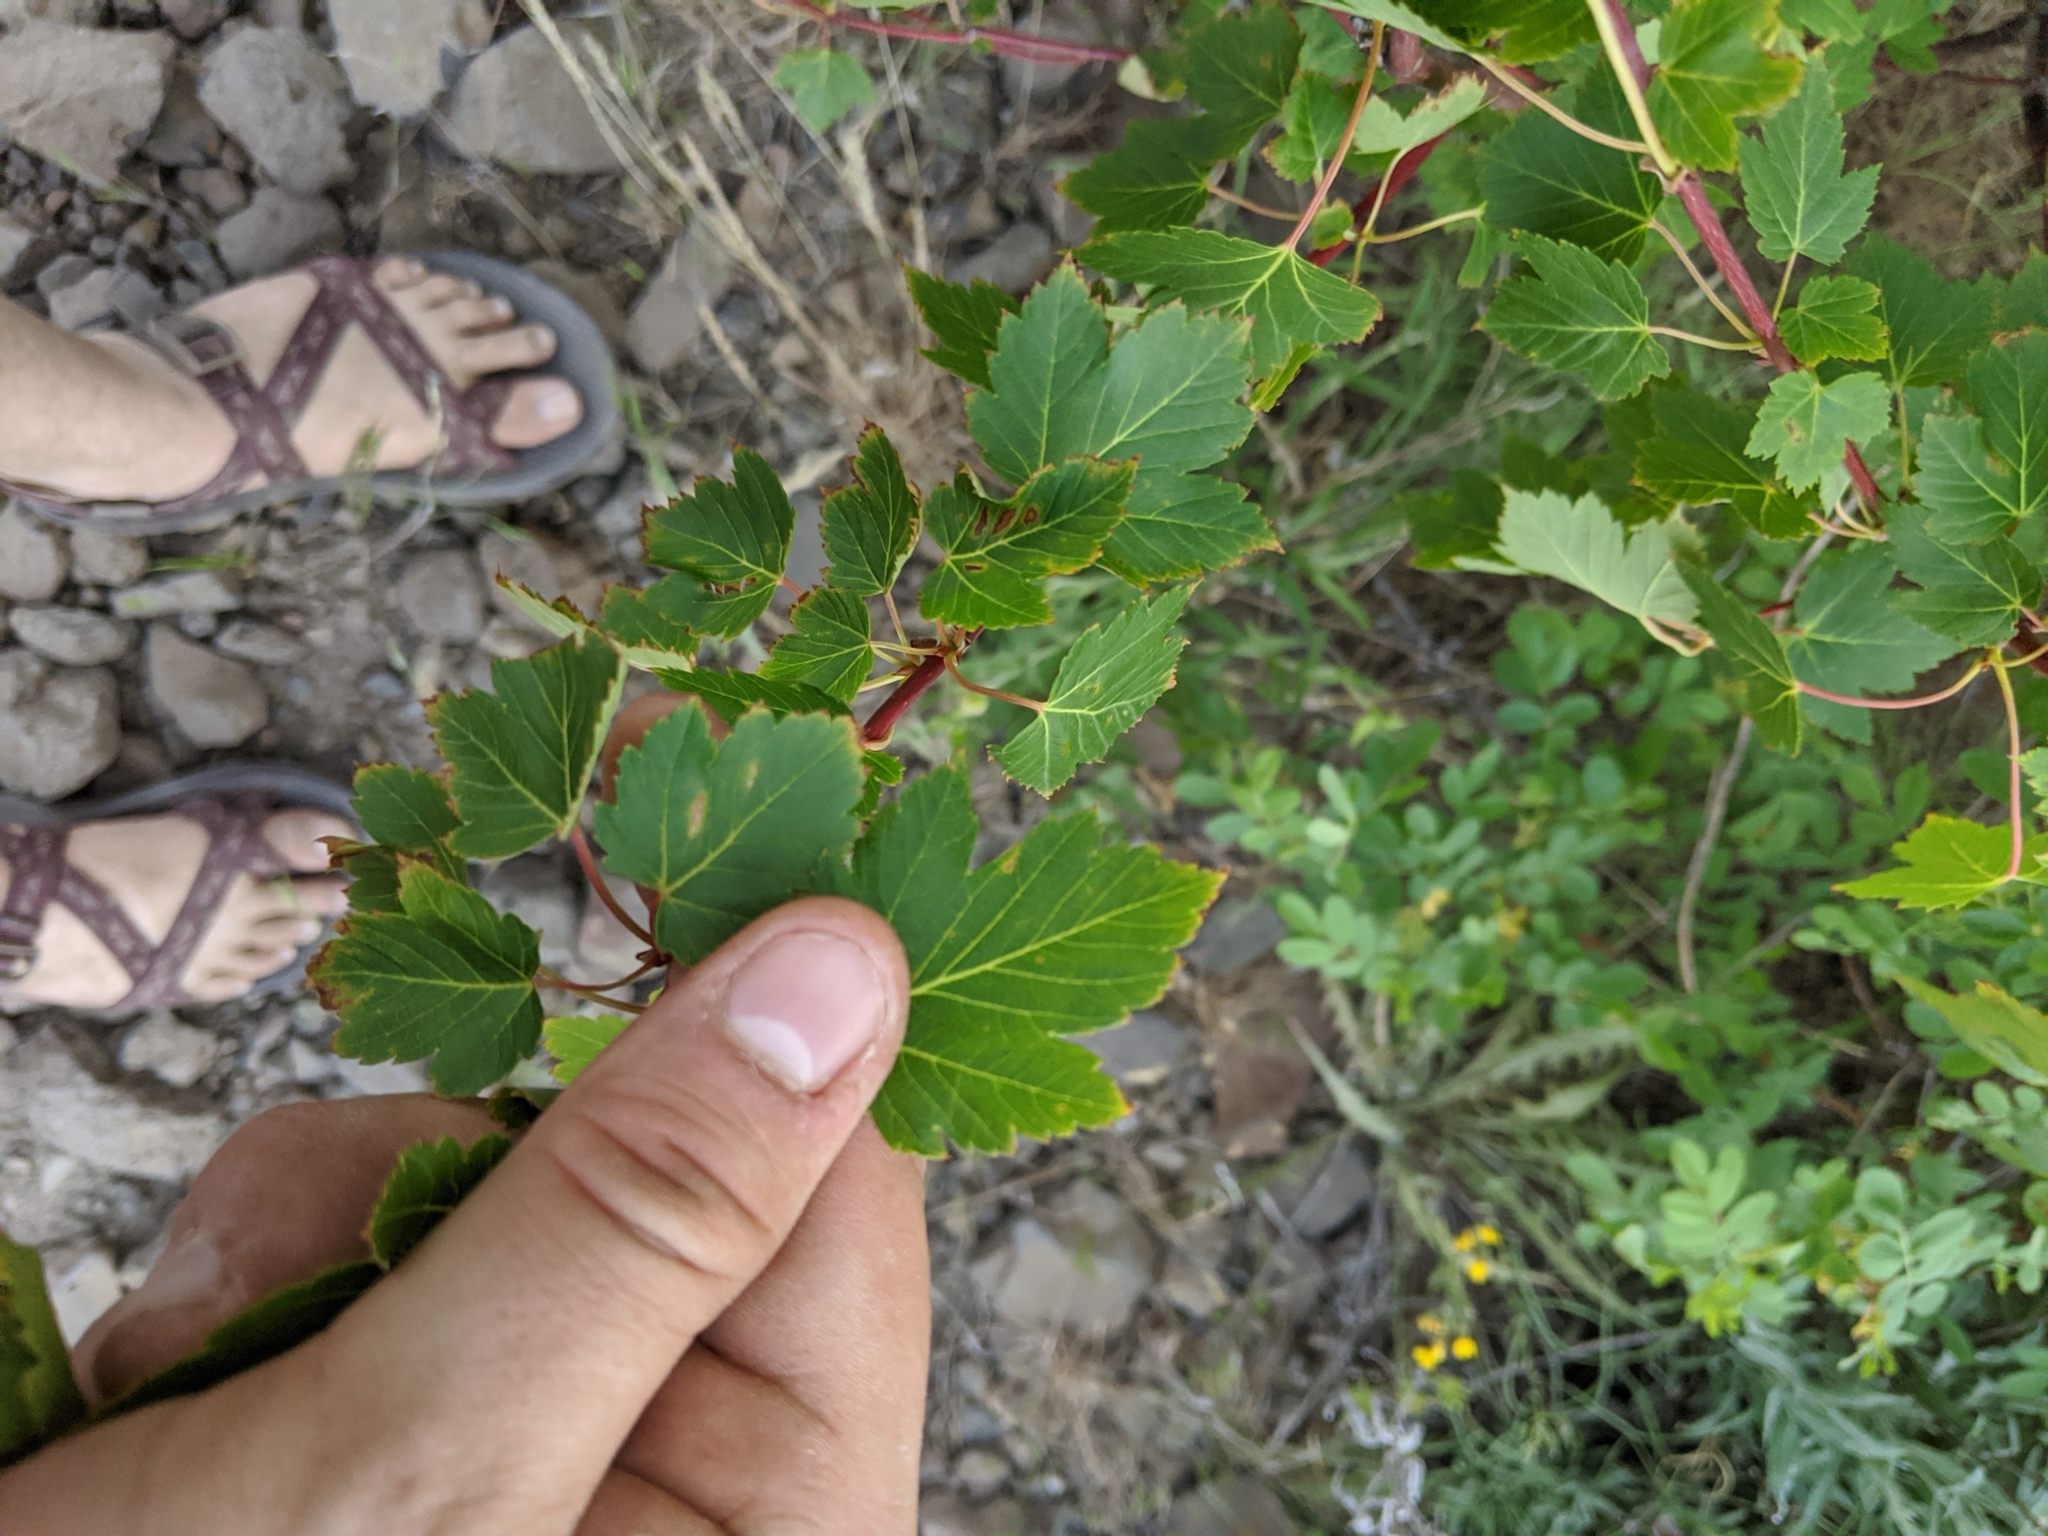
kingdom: Plantae
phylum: Tracheophyta
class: Magnoliopsida
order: Sapindales
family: Sapindaceae
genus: Acer
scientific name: Acer glabrum
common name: Rocky mountain maple
